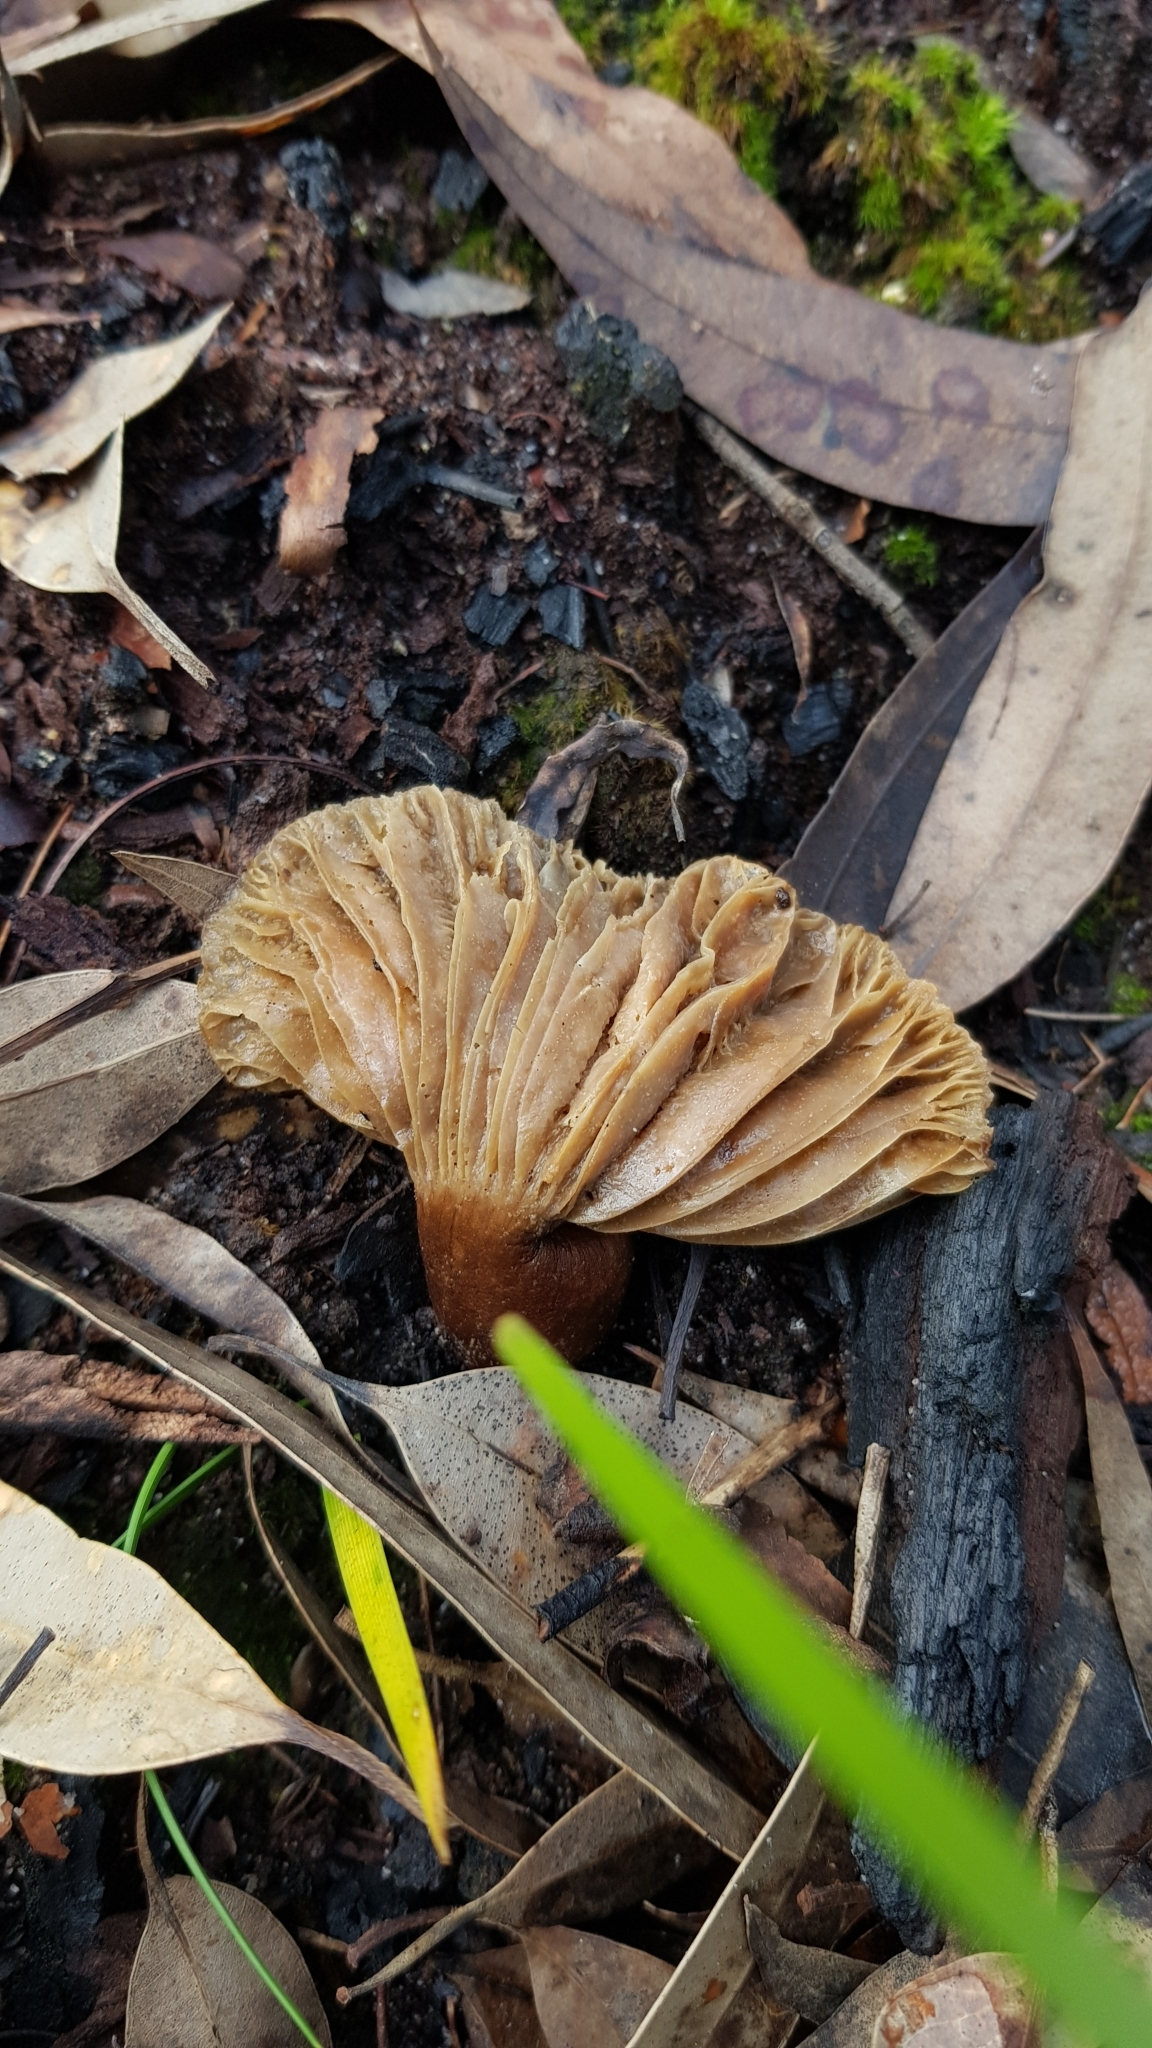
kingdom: Fungi
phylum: Basidiomycota
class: Agaricomycetes
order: Russulales
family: Russulaceae
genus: Lactifluus
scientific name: Lactifluus wirrabara
